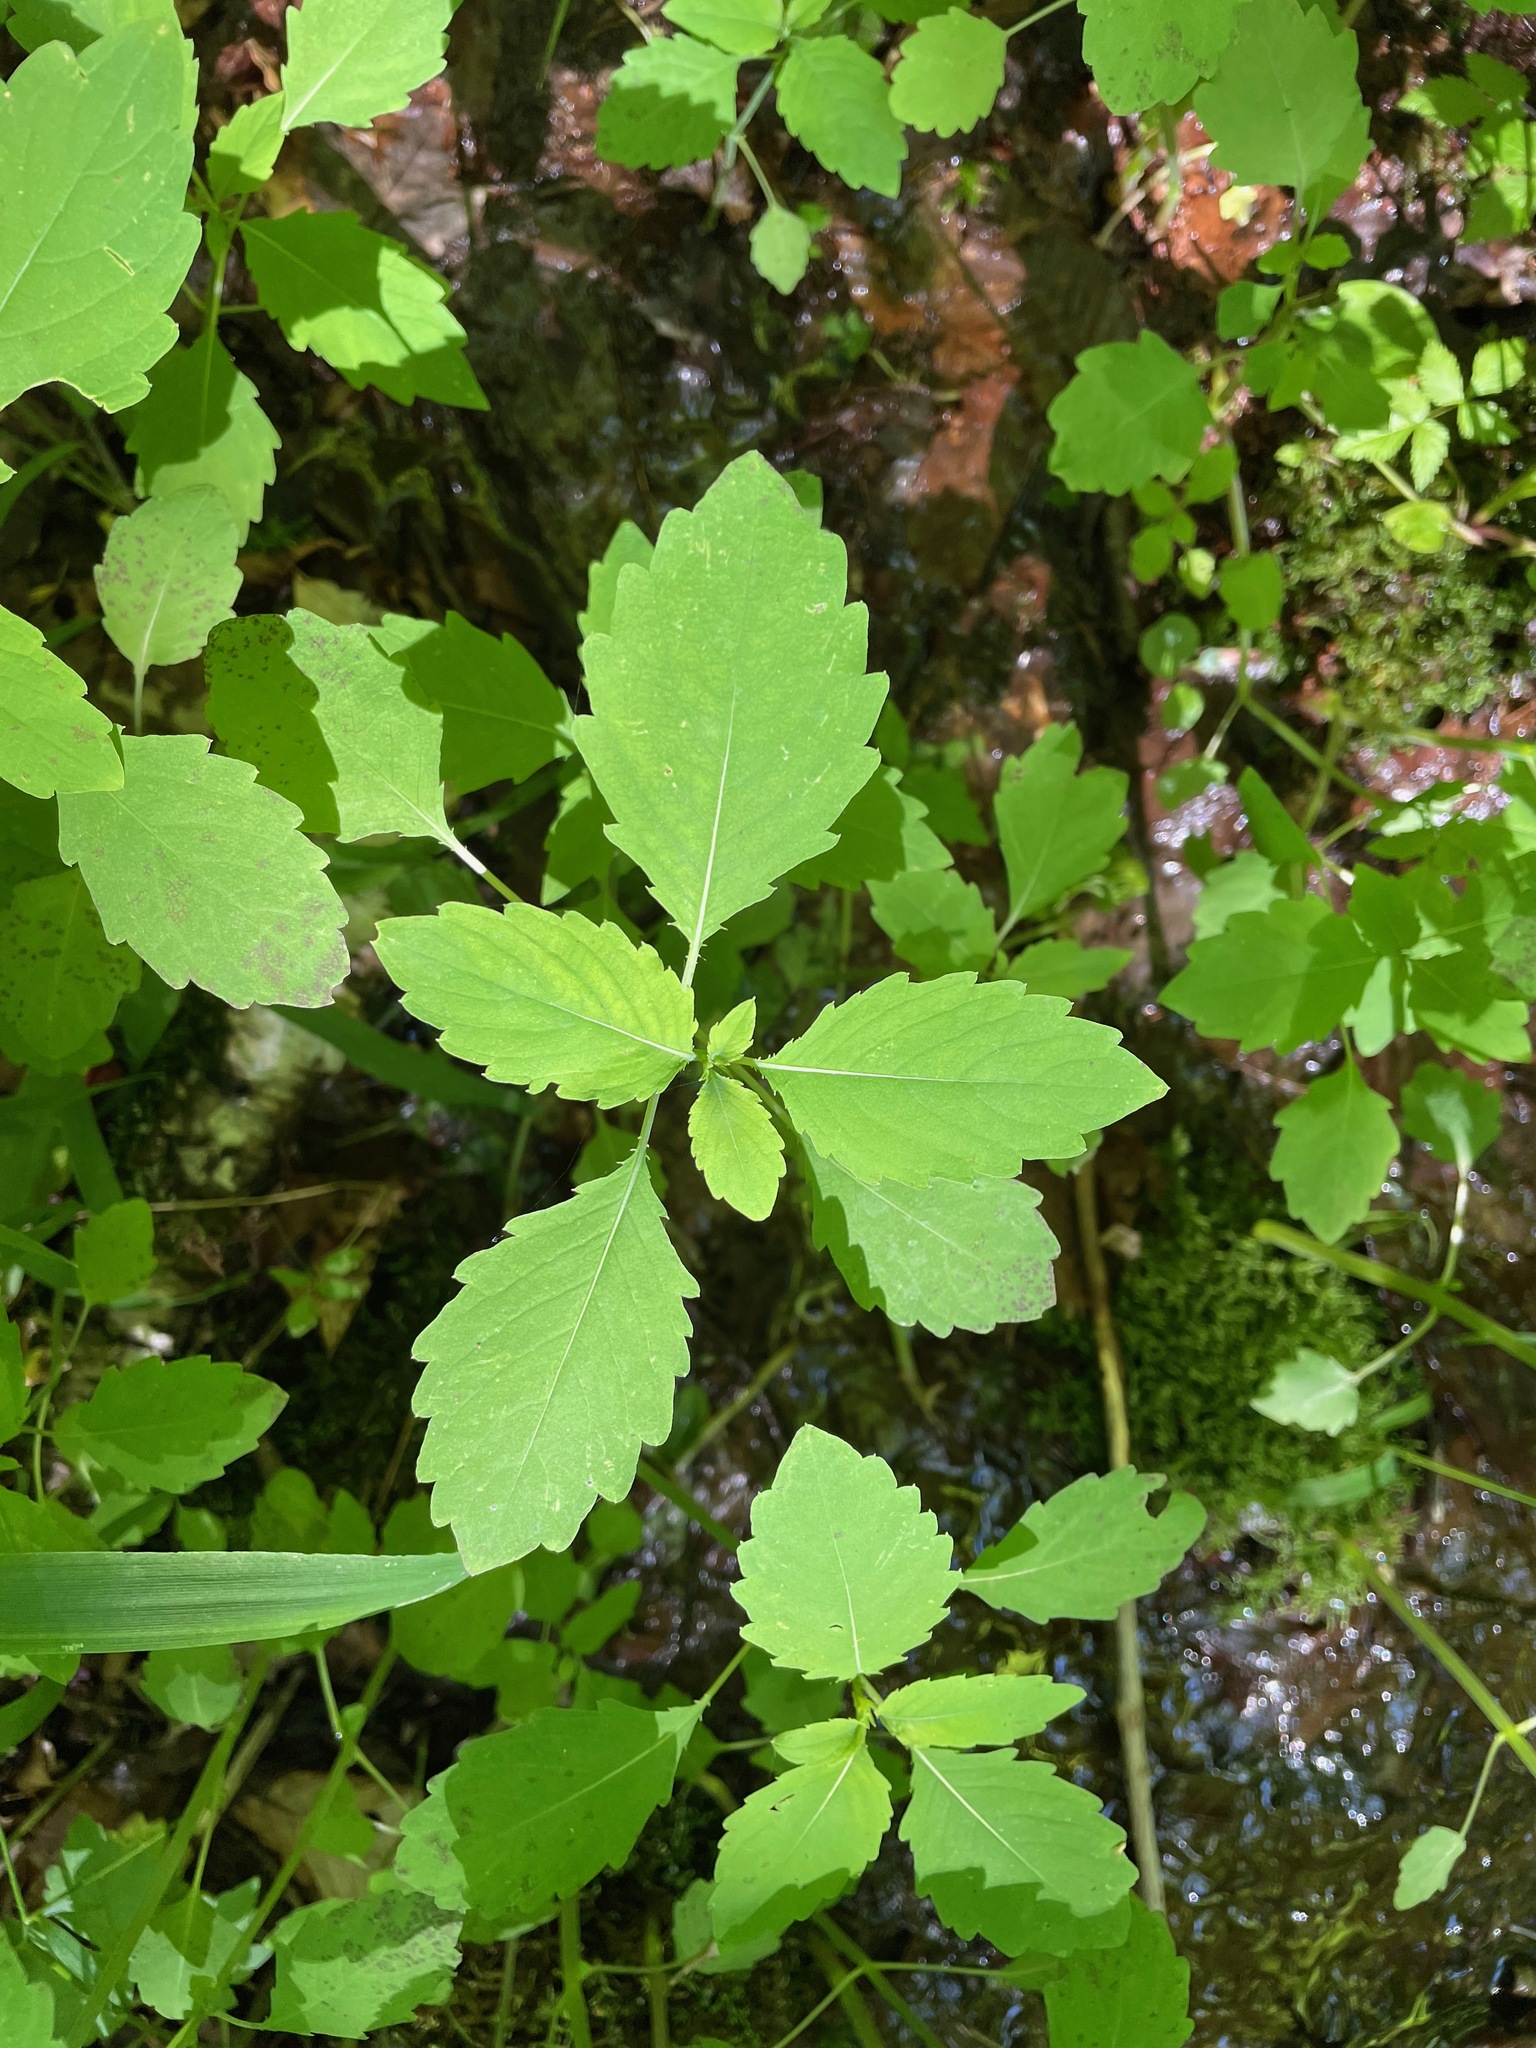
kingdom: Plantae
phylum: Tracheophyta
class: Magnoliopsida
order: Ericales
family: Balsaminaceae
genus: Impatiens
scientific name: Impatiens
